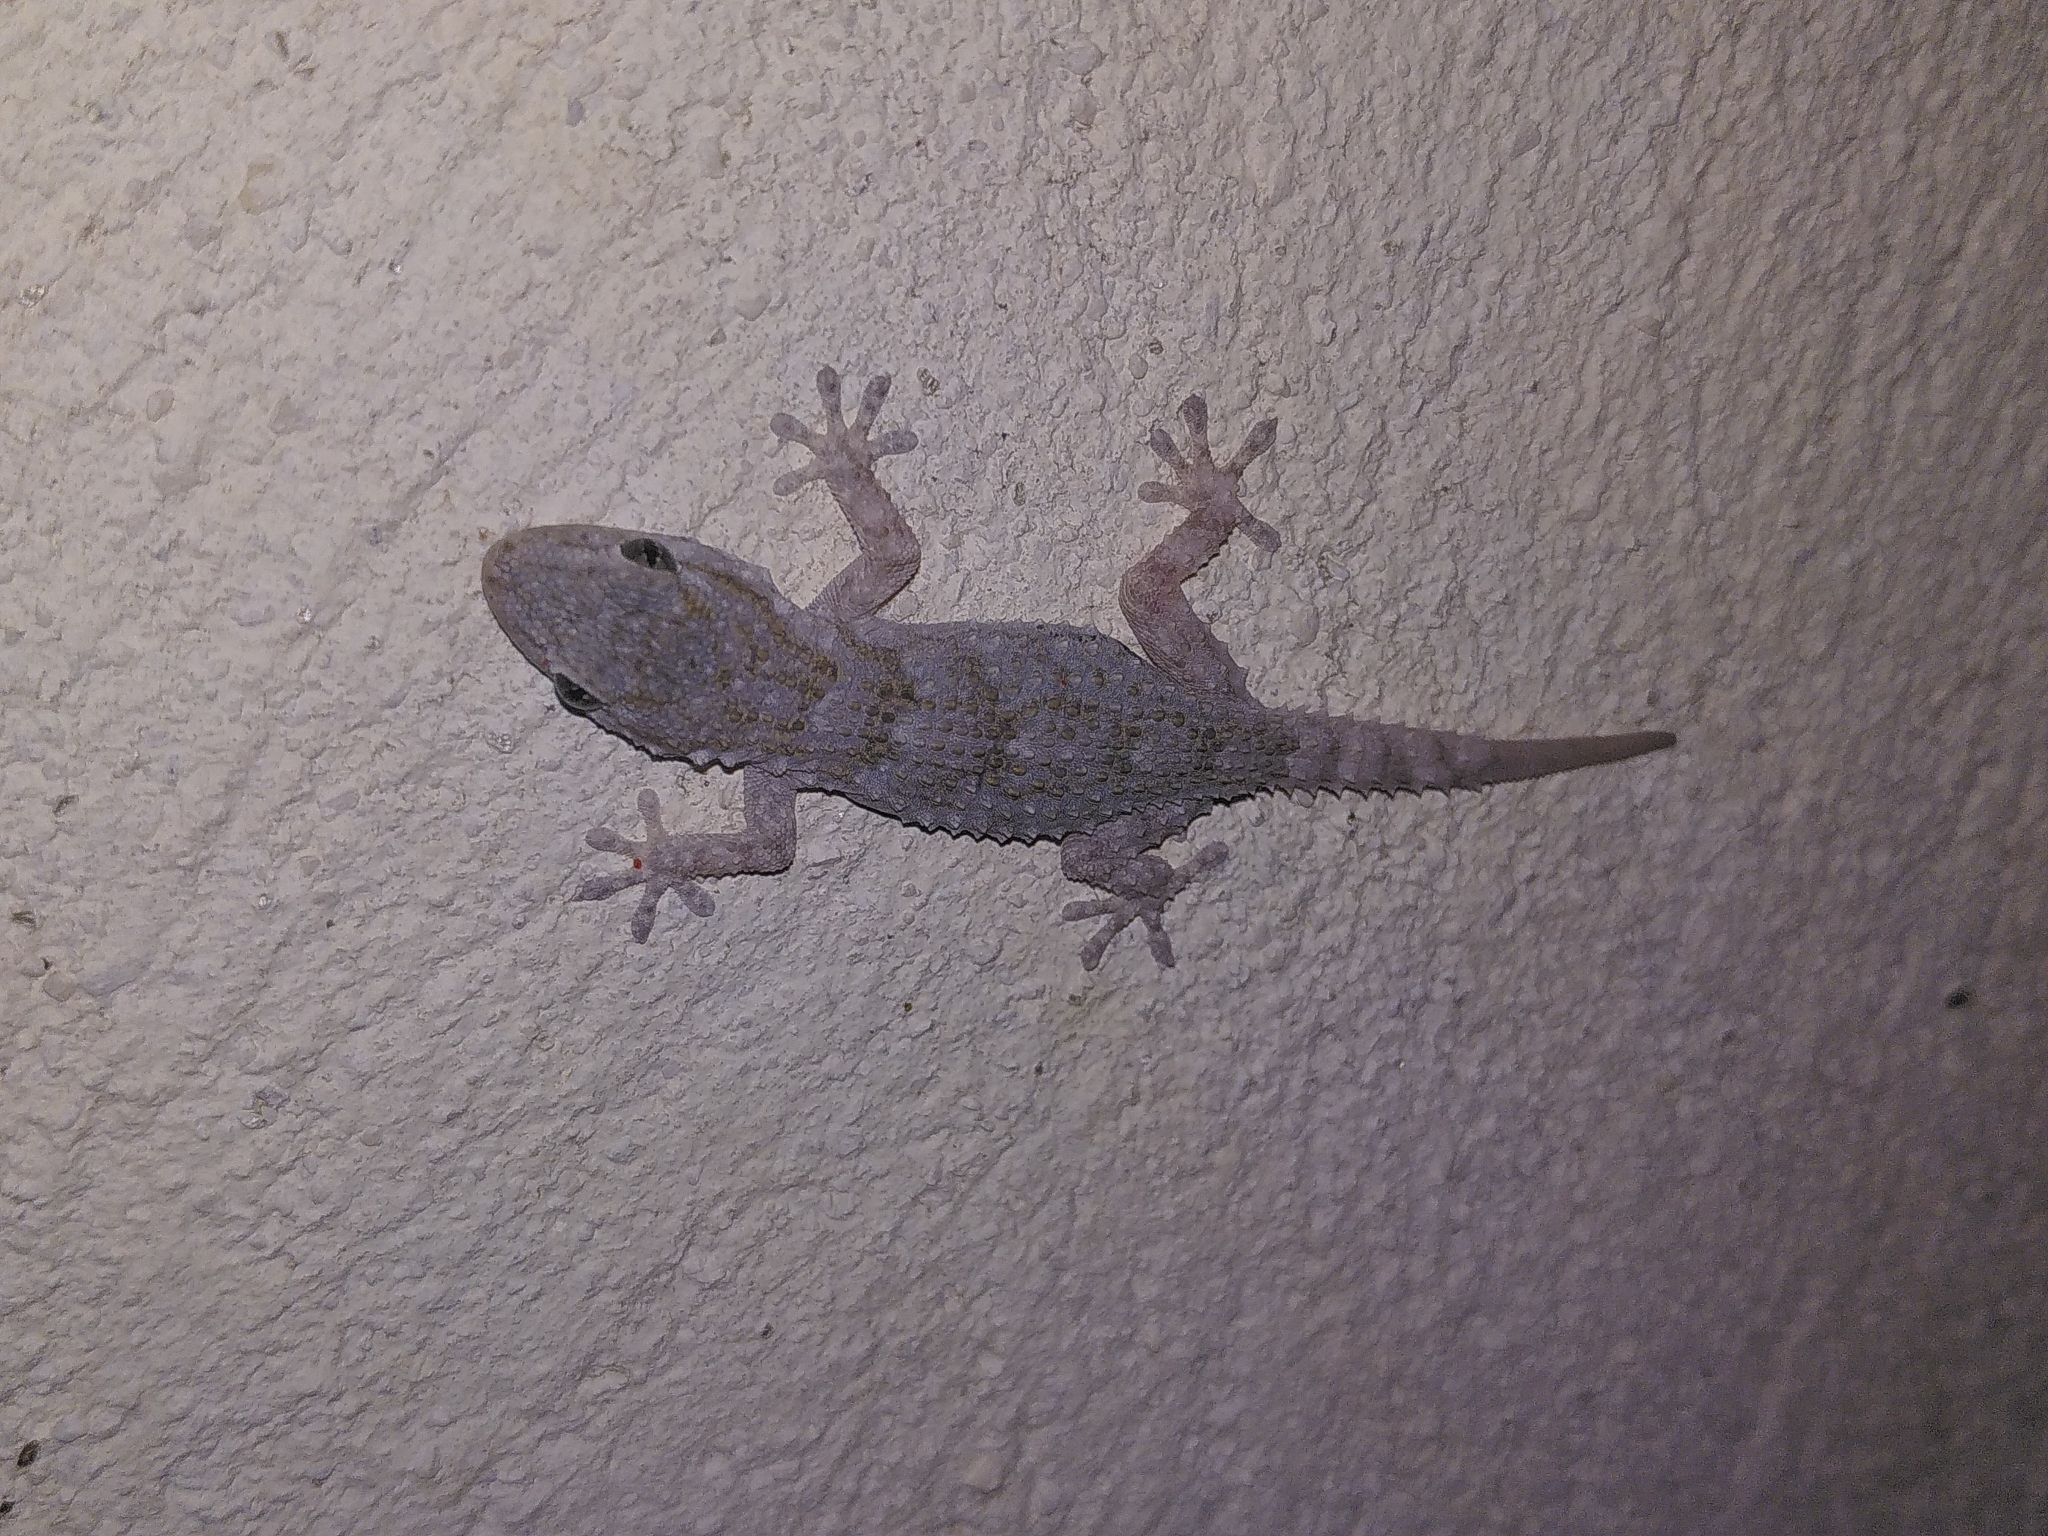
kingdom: Animalia
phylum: Chordata
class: Squamata
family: Phyllodactylidae
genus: Tarentola
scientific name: Tarentola mauritanica
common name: Moorish gecko
